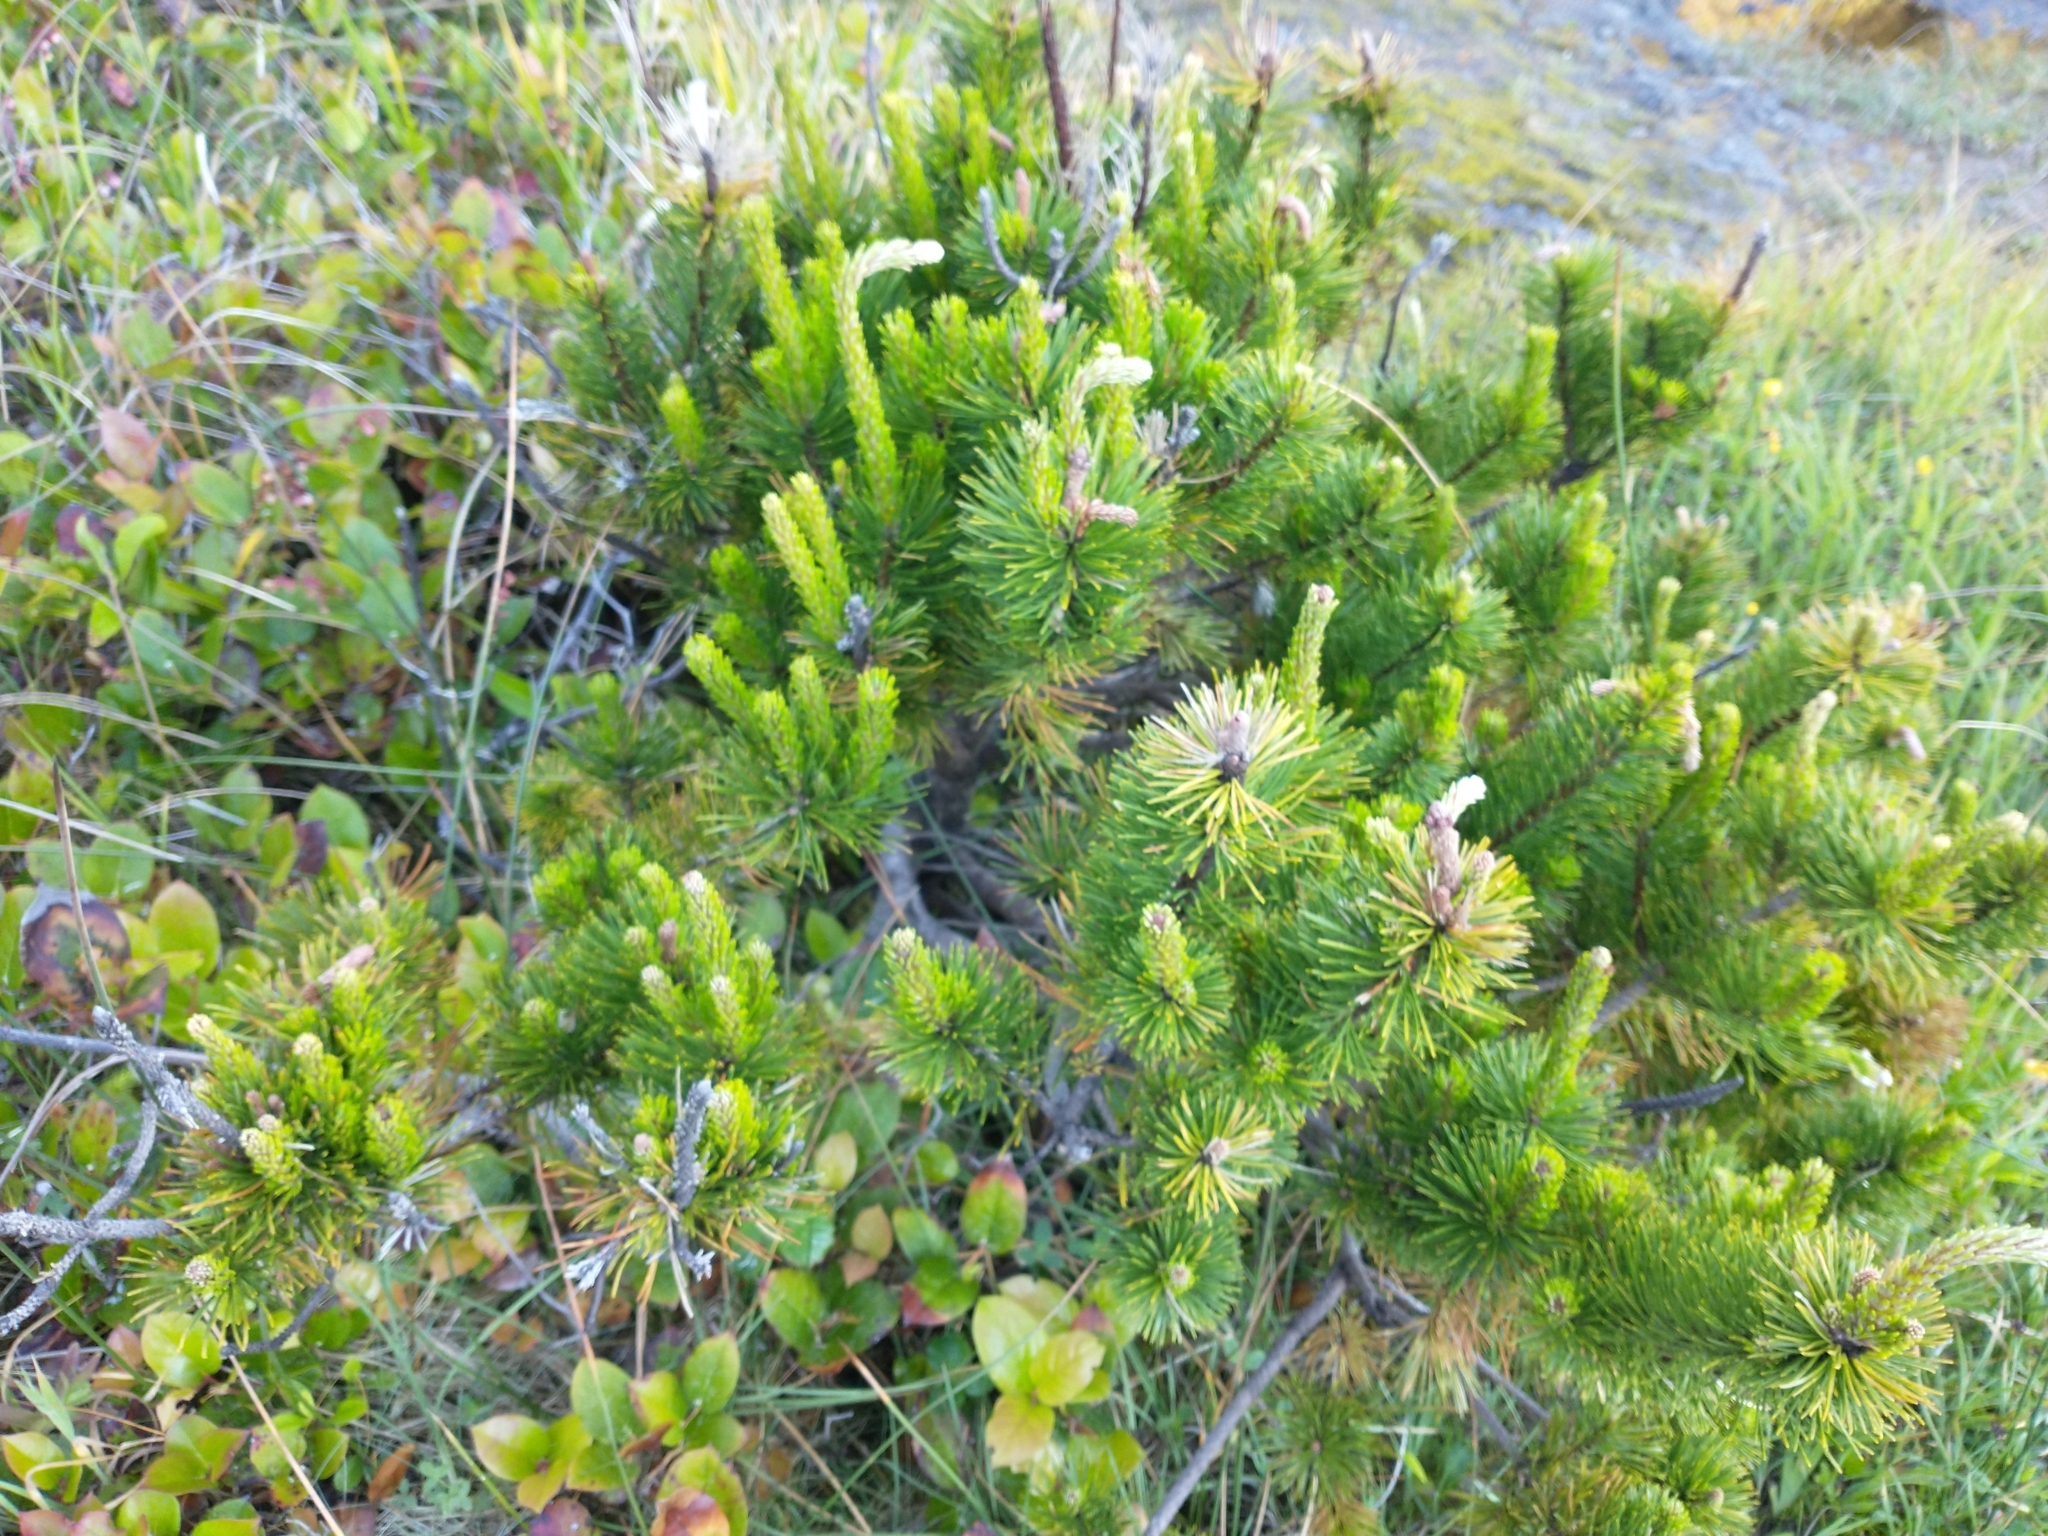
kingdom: Plantae
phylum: Tracheophyta
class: Pinopsida
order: Pinales
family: Pinaceae
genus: Pinus
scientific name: Pinus contorta
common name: Lodgepole pine
